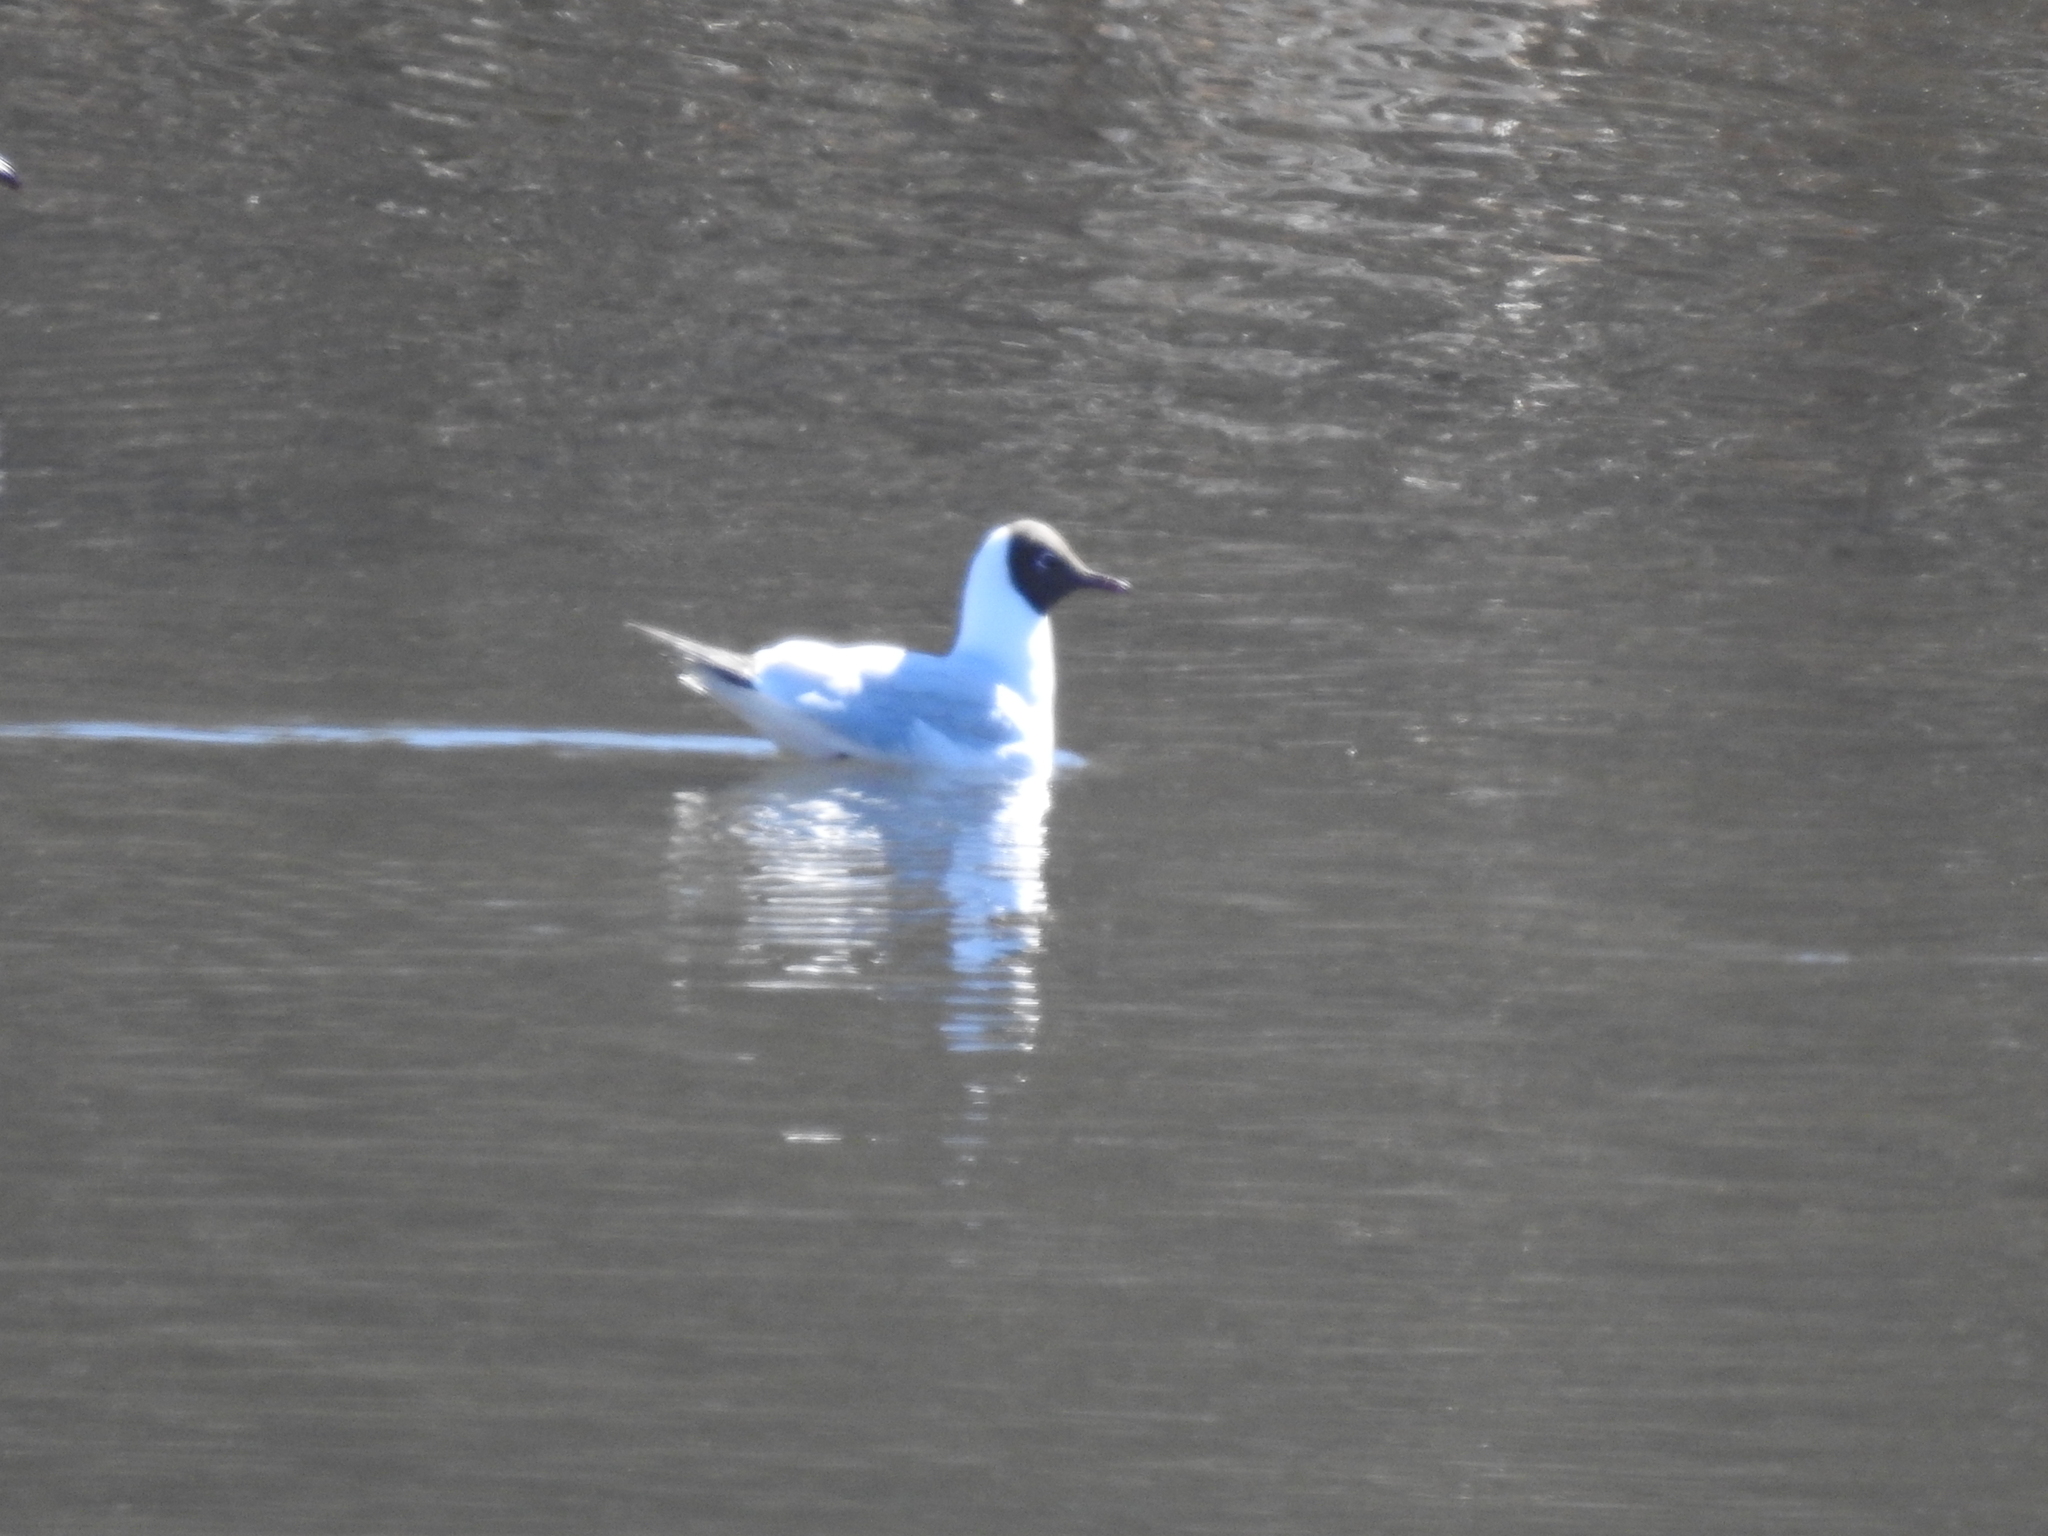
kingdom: Animalia
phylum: Chordata
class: Aves
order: Charadriiformes
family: Laridae
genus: Chroicocephalus
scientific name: Chroicocephalus ridibundus
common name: Black-headed gull
